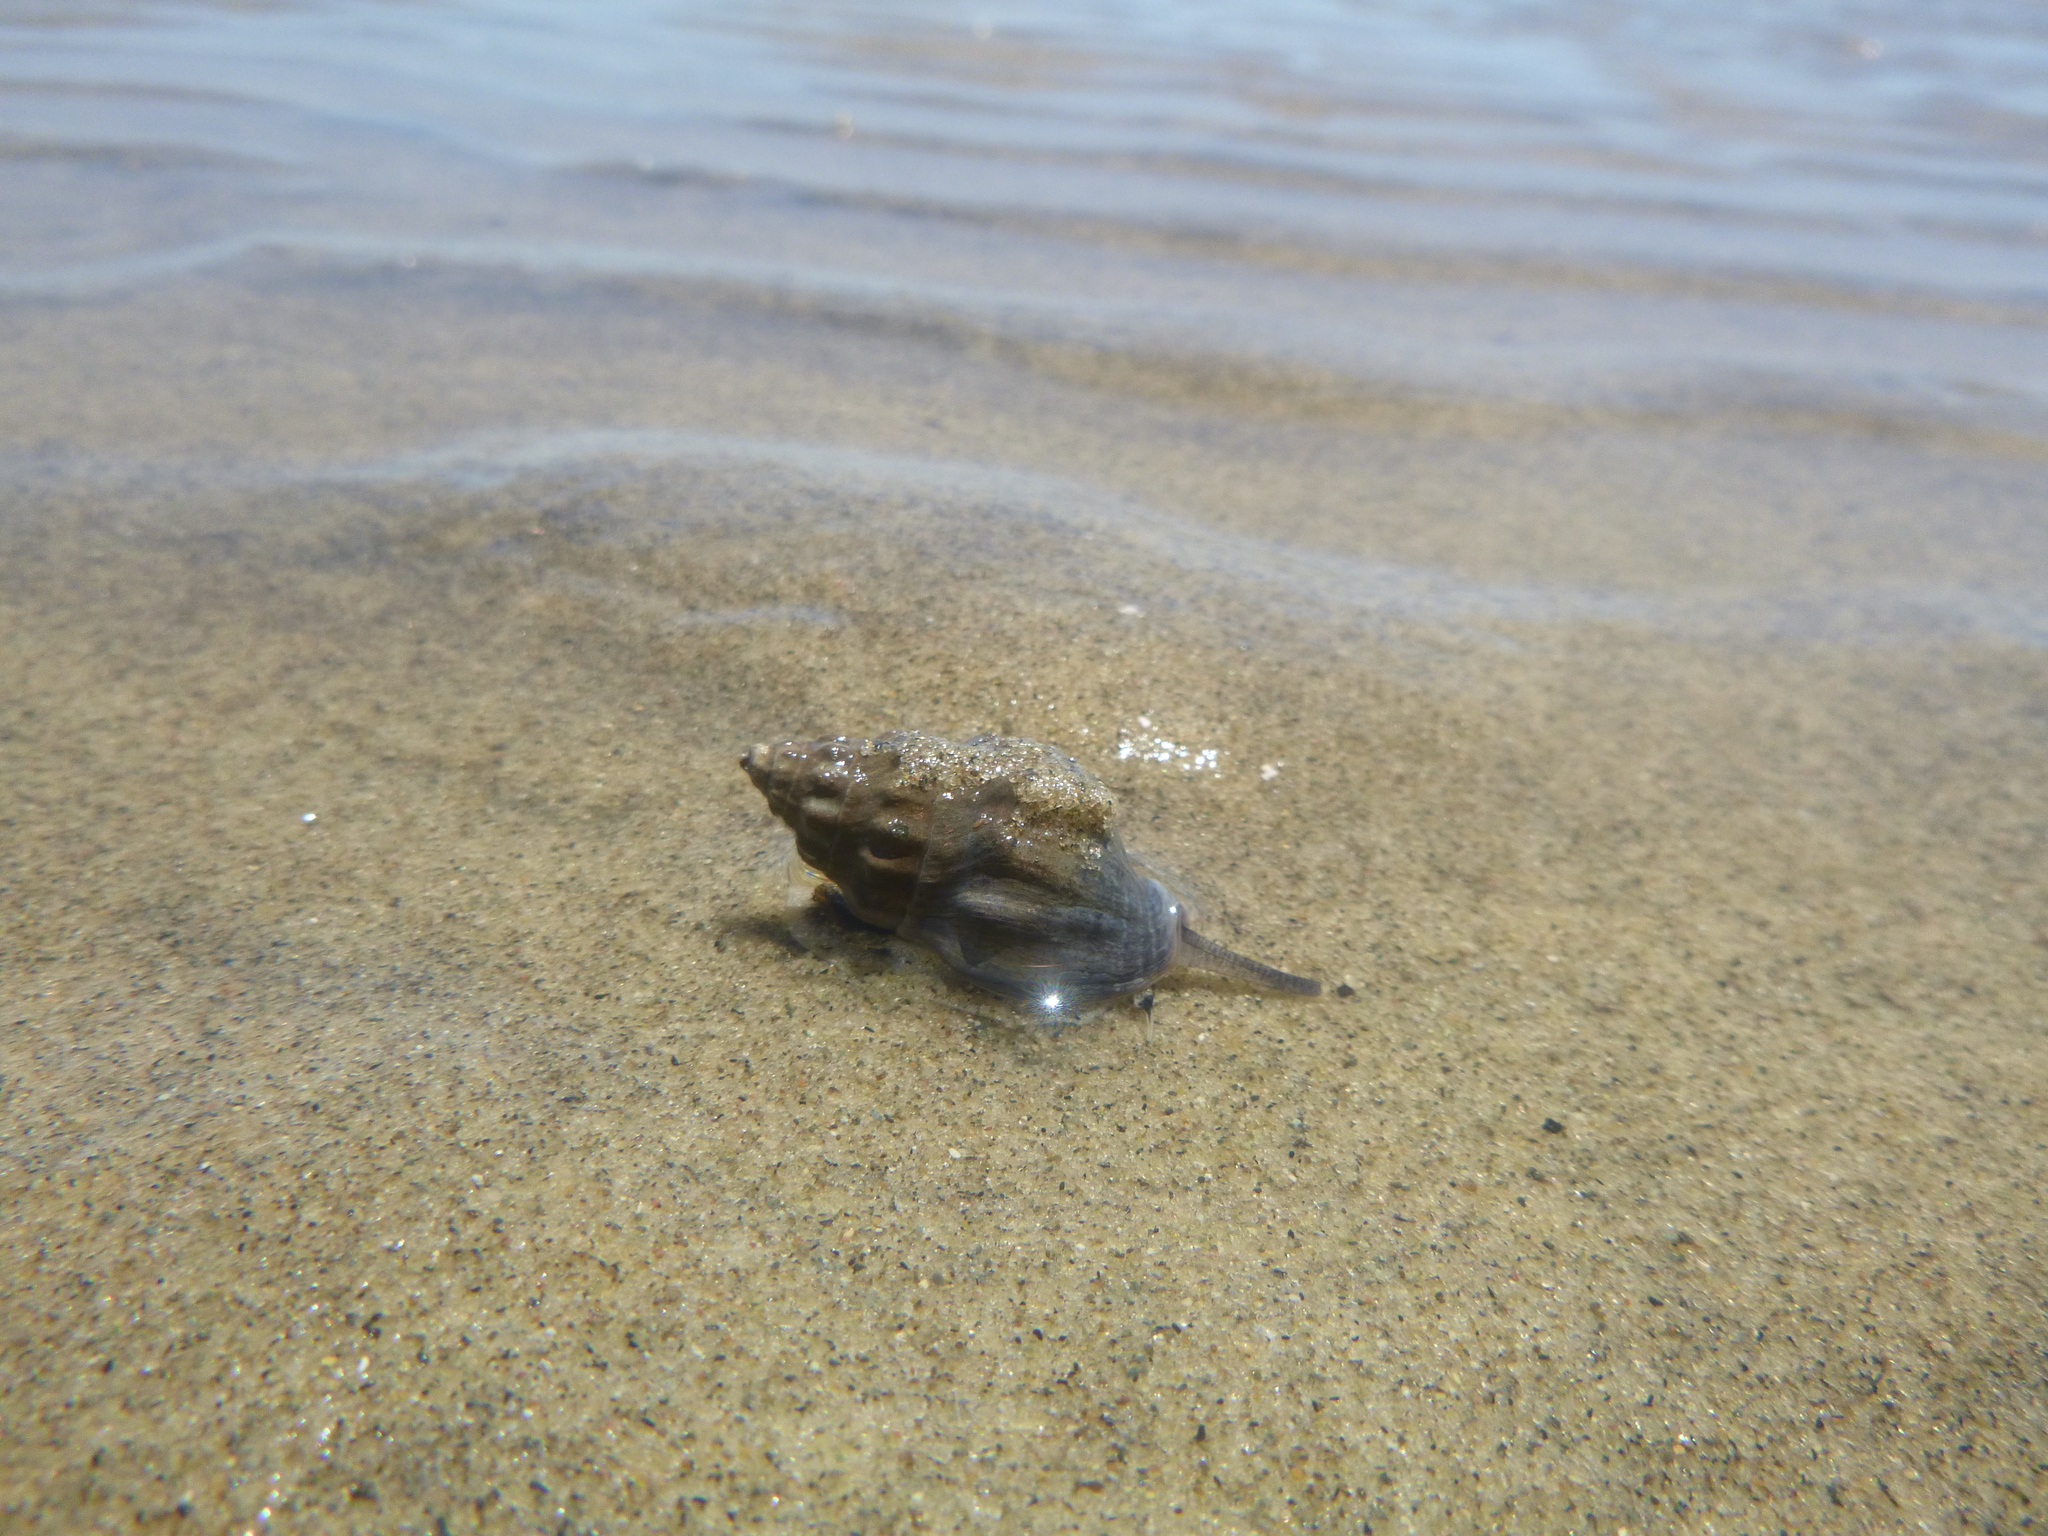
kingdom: Animalia
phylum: Mollusca
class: Gastropoda
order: Neogastropoda
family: Cominellidae
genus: Cominella
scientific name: Cominella glandiformis
